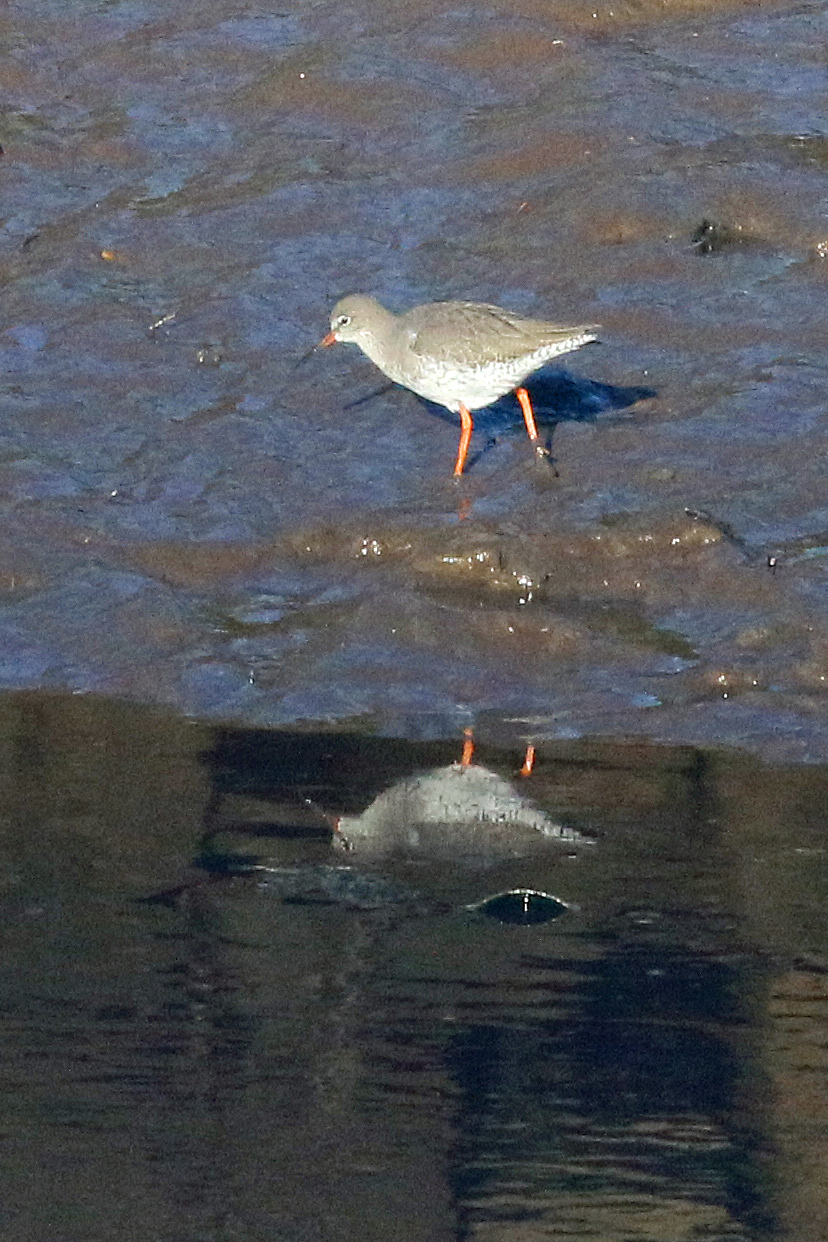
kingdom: Animalia
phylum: Chordata
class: Aves
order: Charadriiformes
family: Scolopacidae
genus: Tringa
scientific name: Tringa totanus
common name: Common redshank
